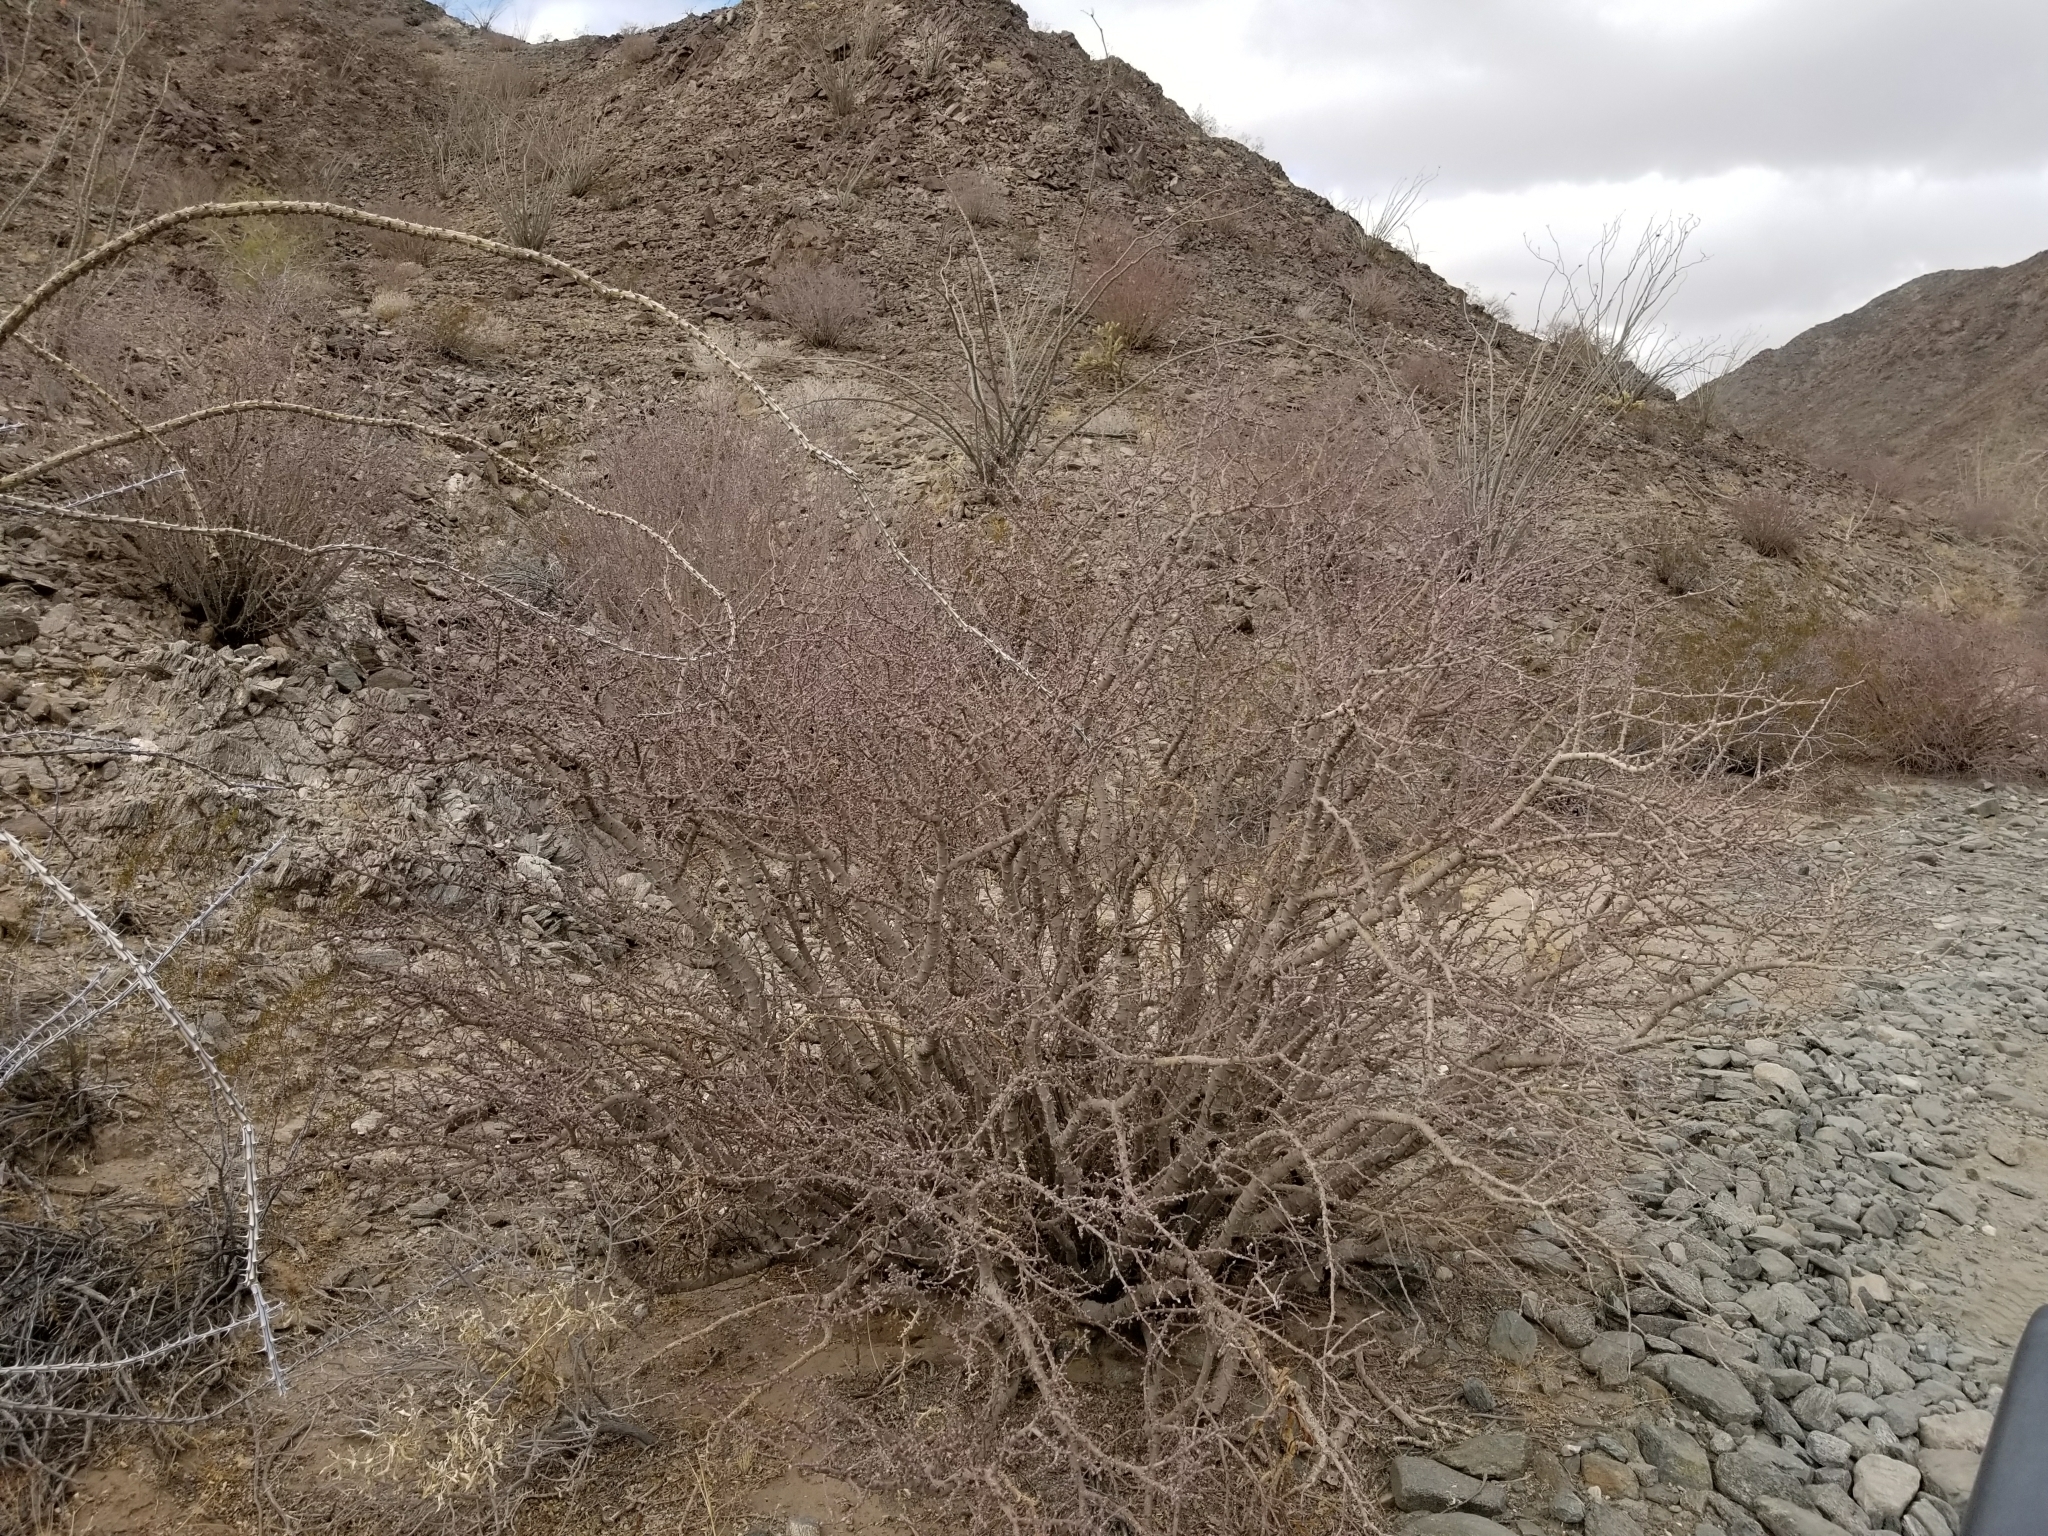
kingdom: Plantae
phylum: Tracheophyta
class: Magnoliopsida
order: Malpighiales
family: Euphorbiaceae
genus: Jatropha
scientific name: Jatropha cuneata
